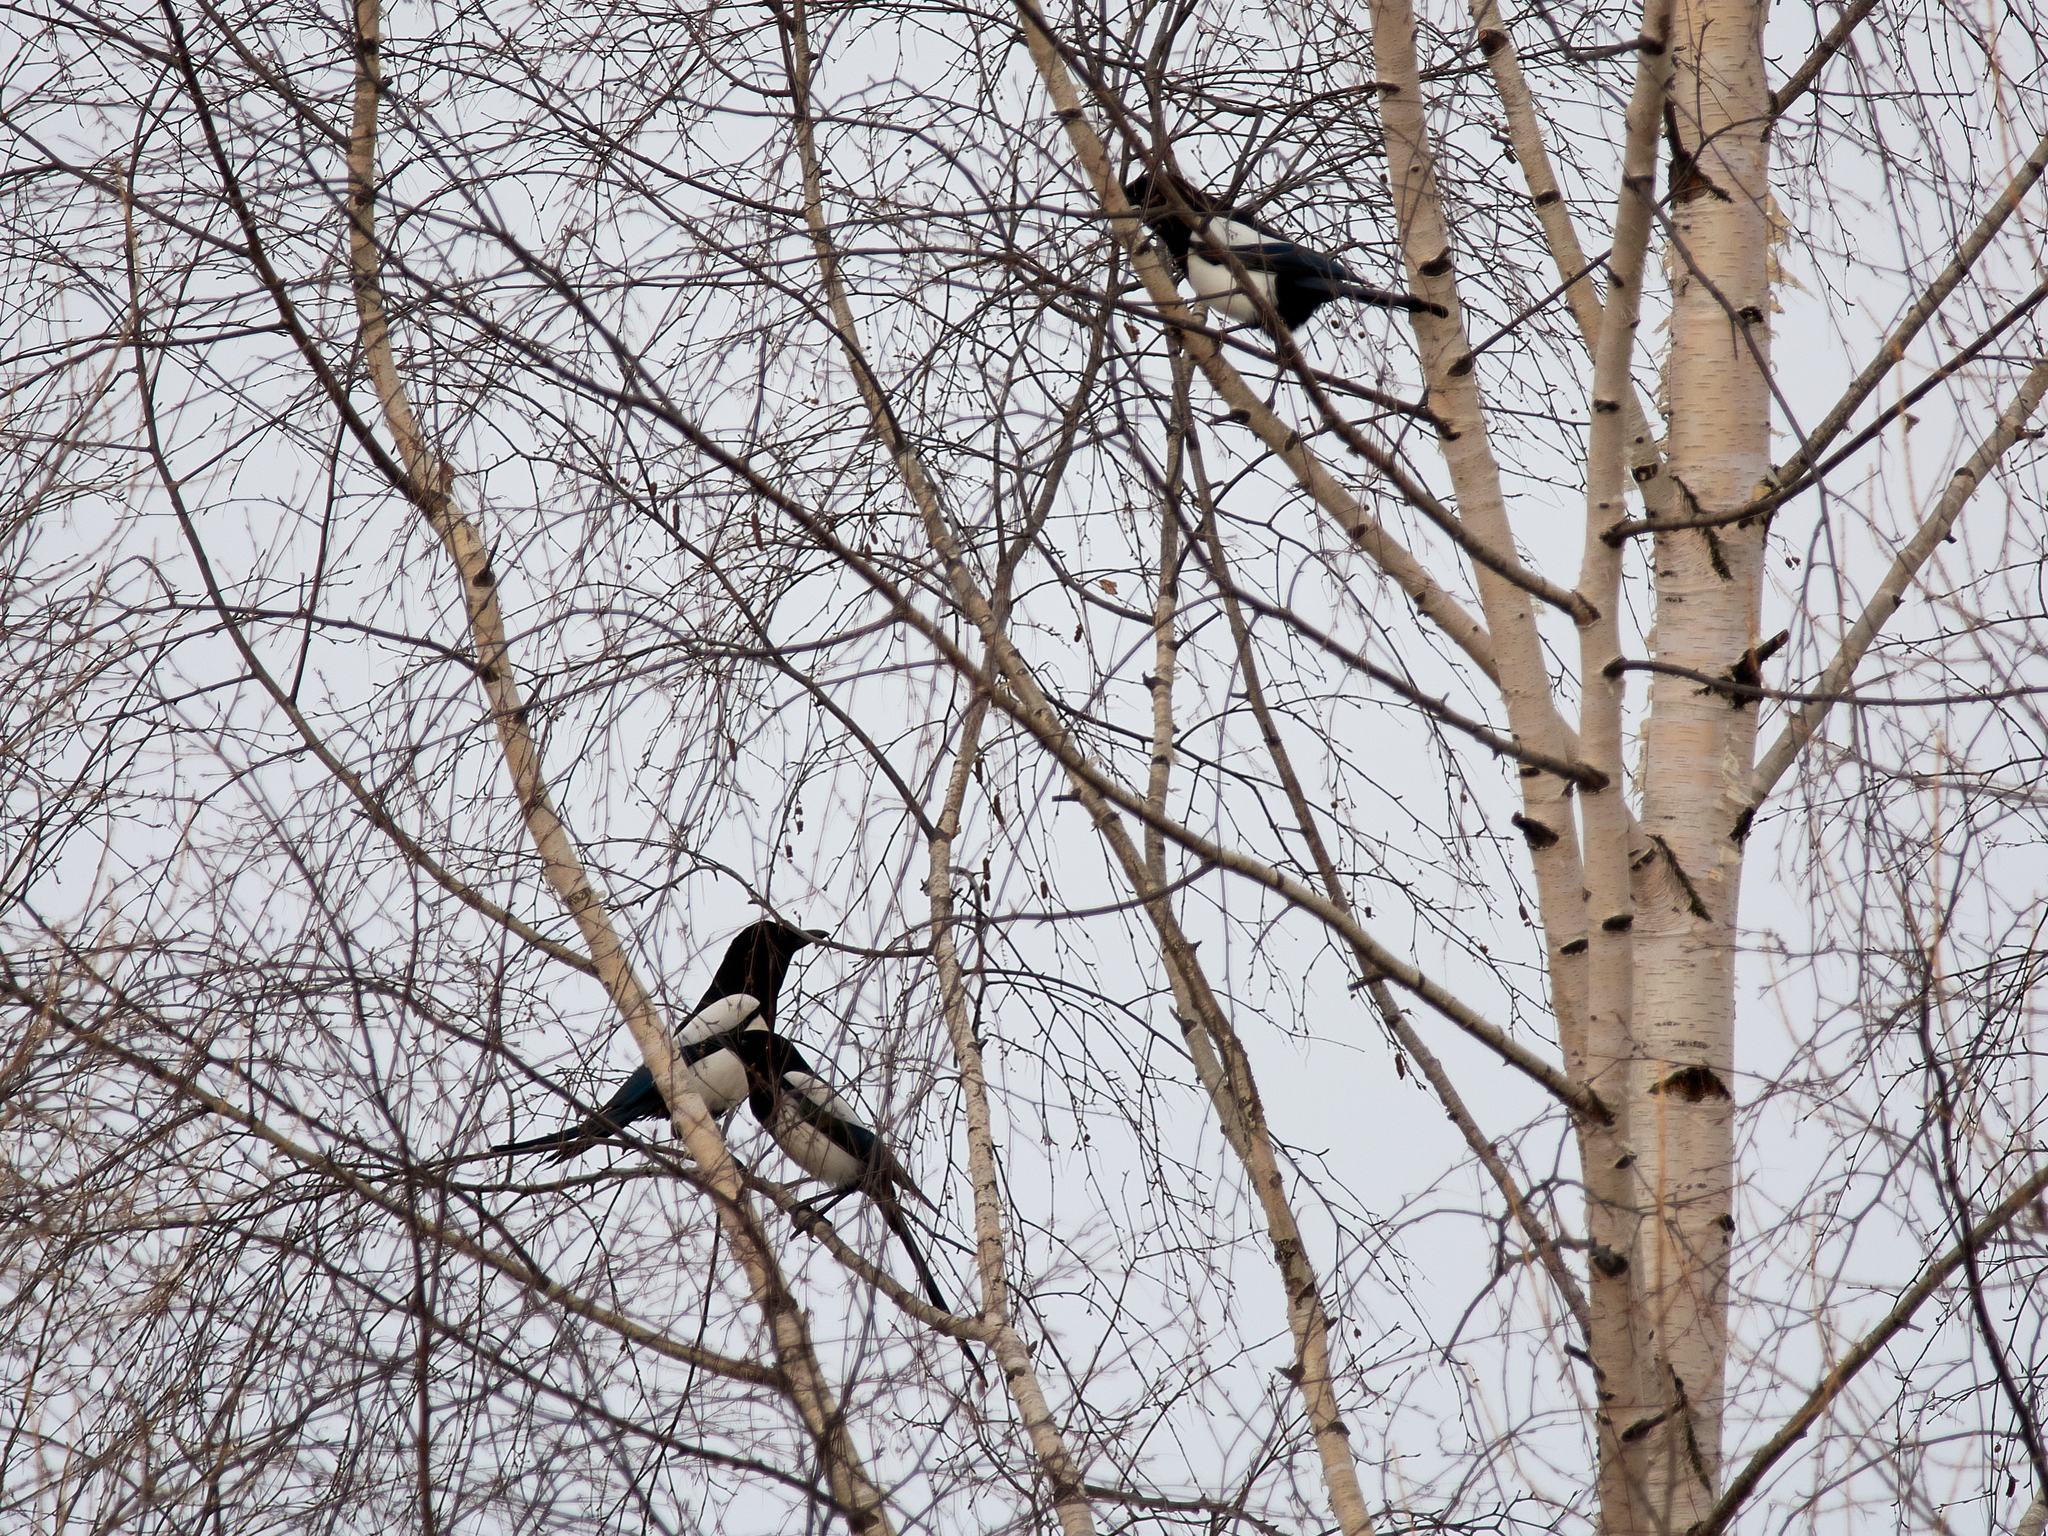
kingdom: Animalia
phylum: Chordata
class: Aves
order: Passeriformes
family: Corvidae
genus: Pica
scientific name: Pica pica
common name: Eurasian magpie
